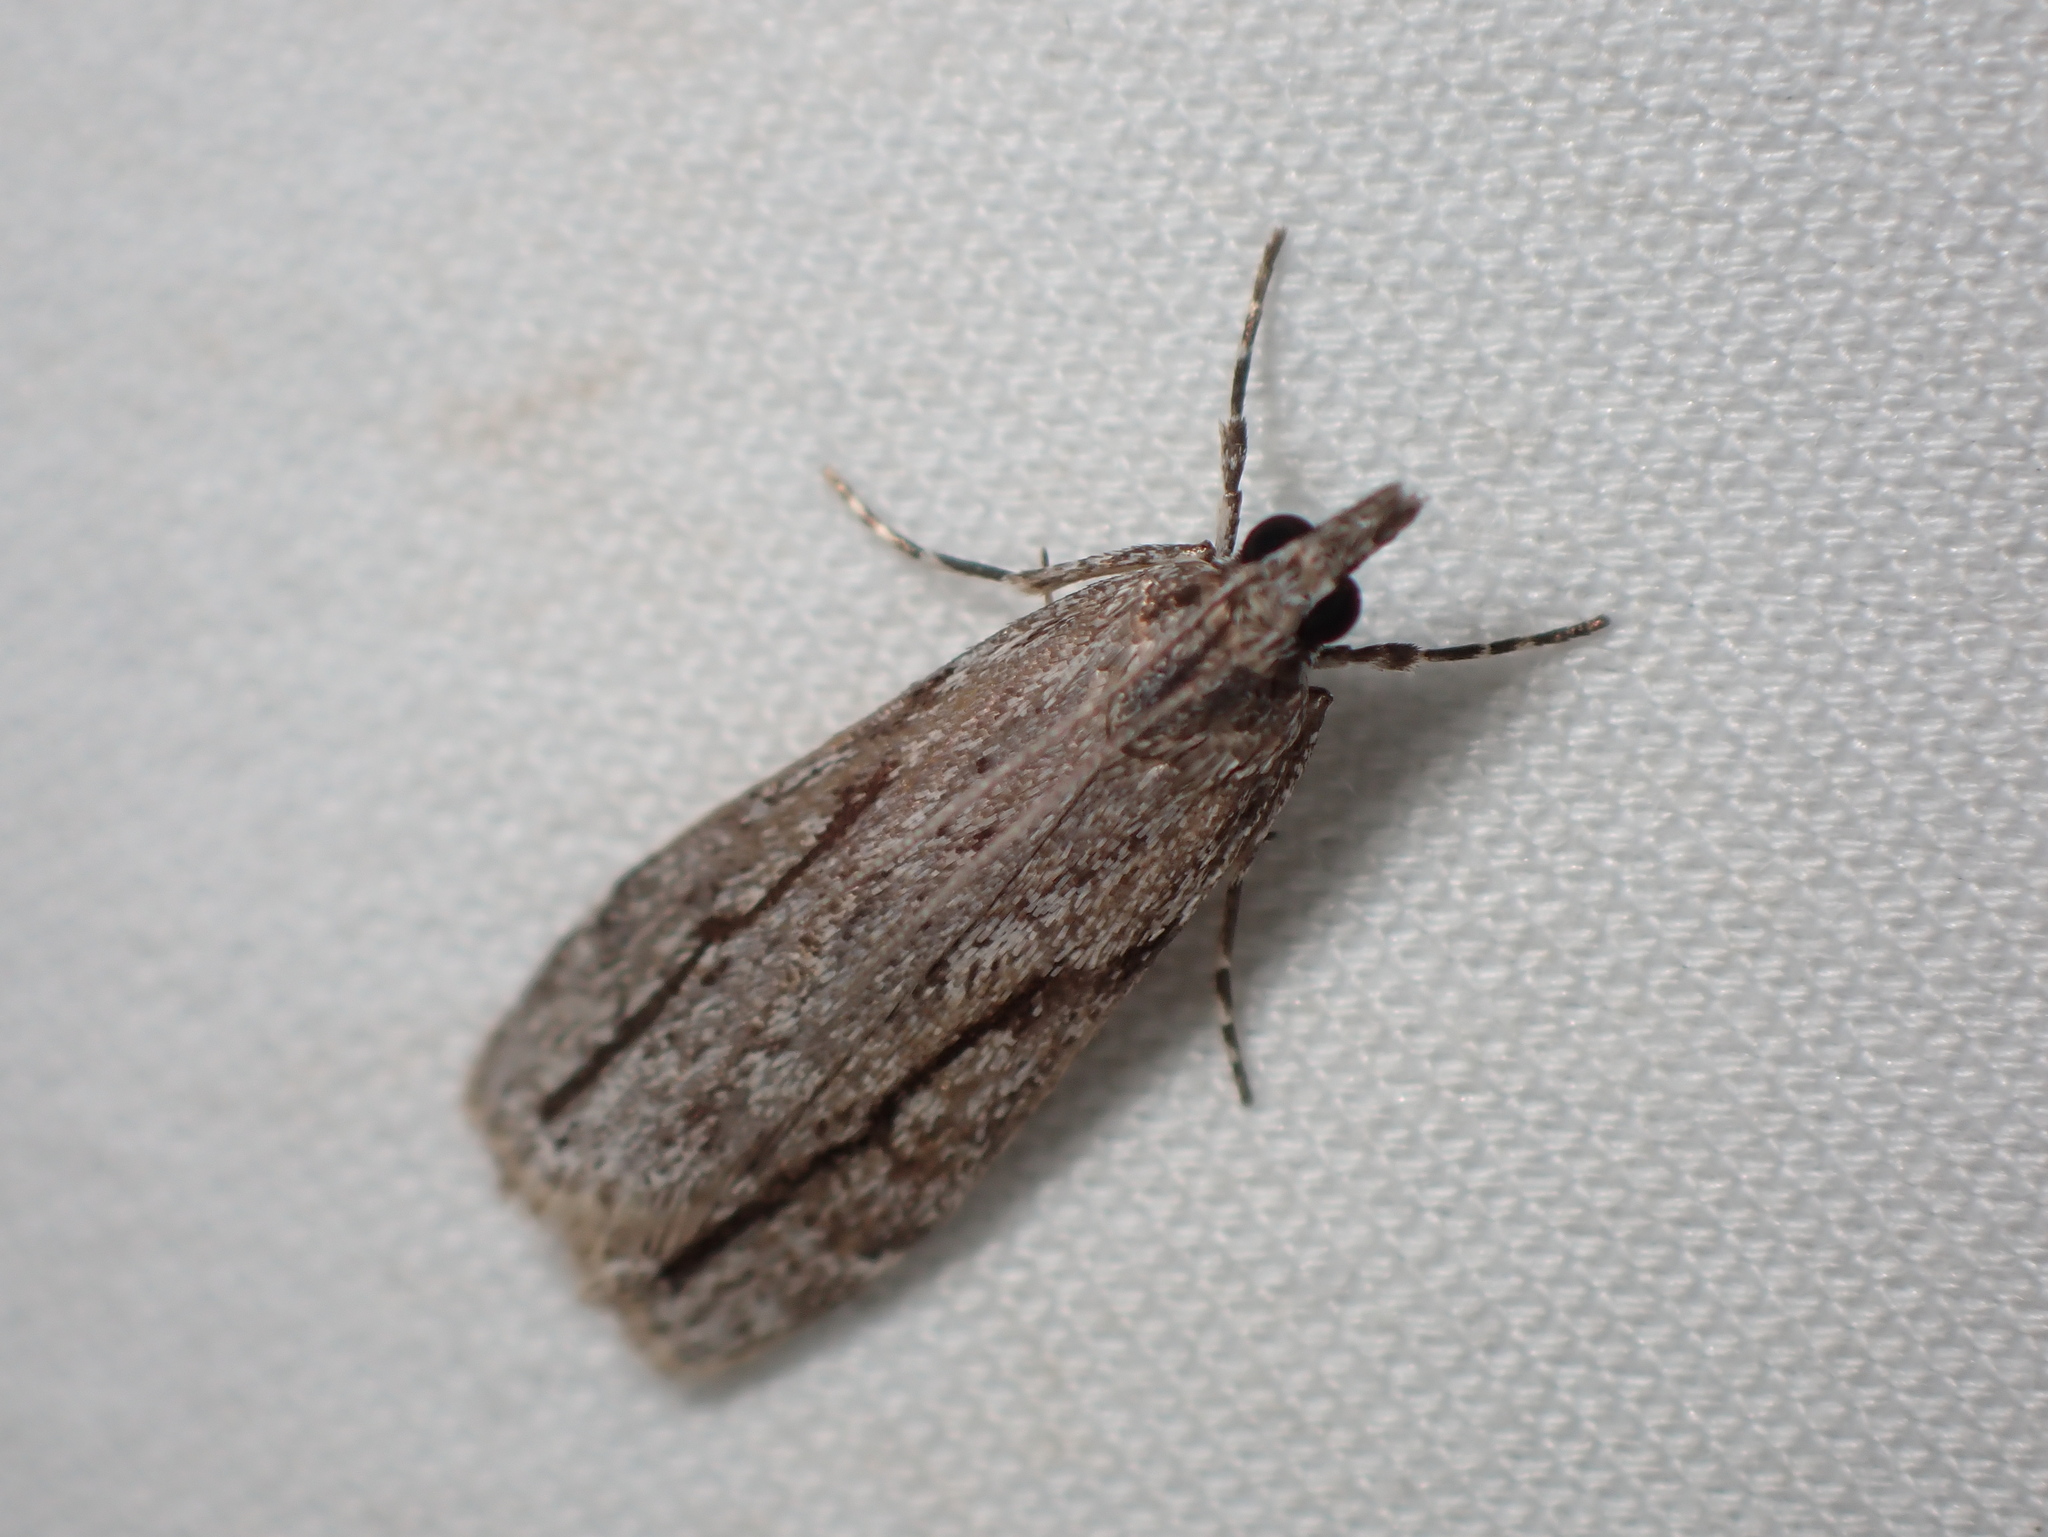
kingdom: Animalia
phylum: Arthropoda
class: Insecta
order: Lepidoptera
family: Crambidae
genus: Eudonia
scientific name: Eudonia bisinualis
